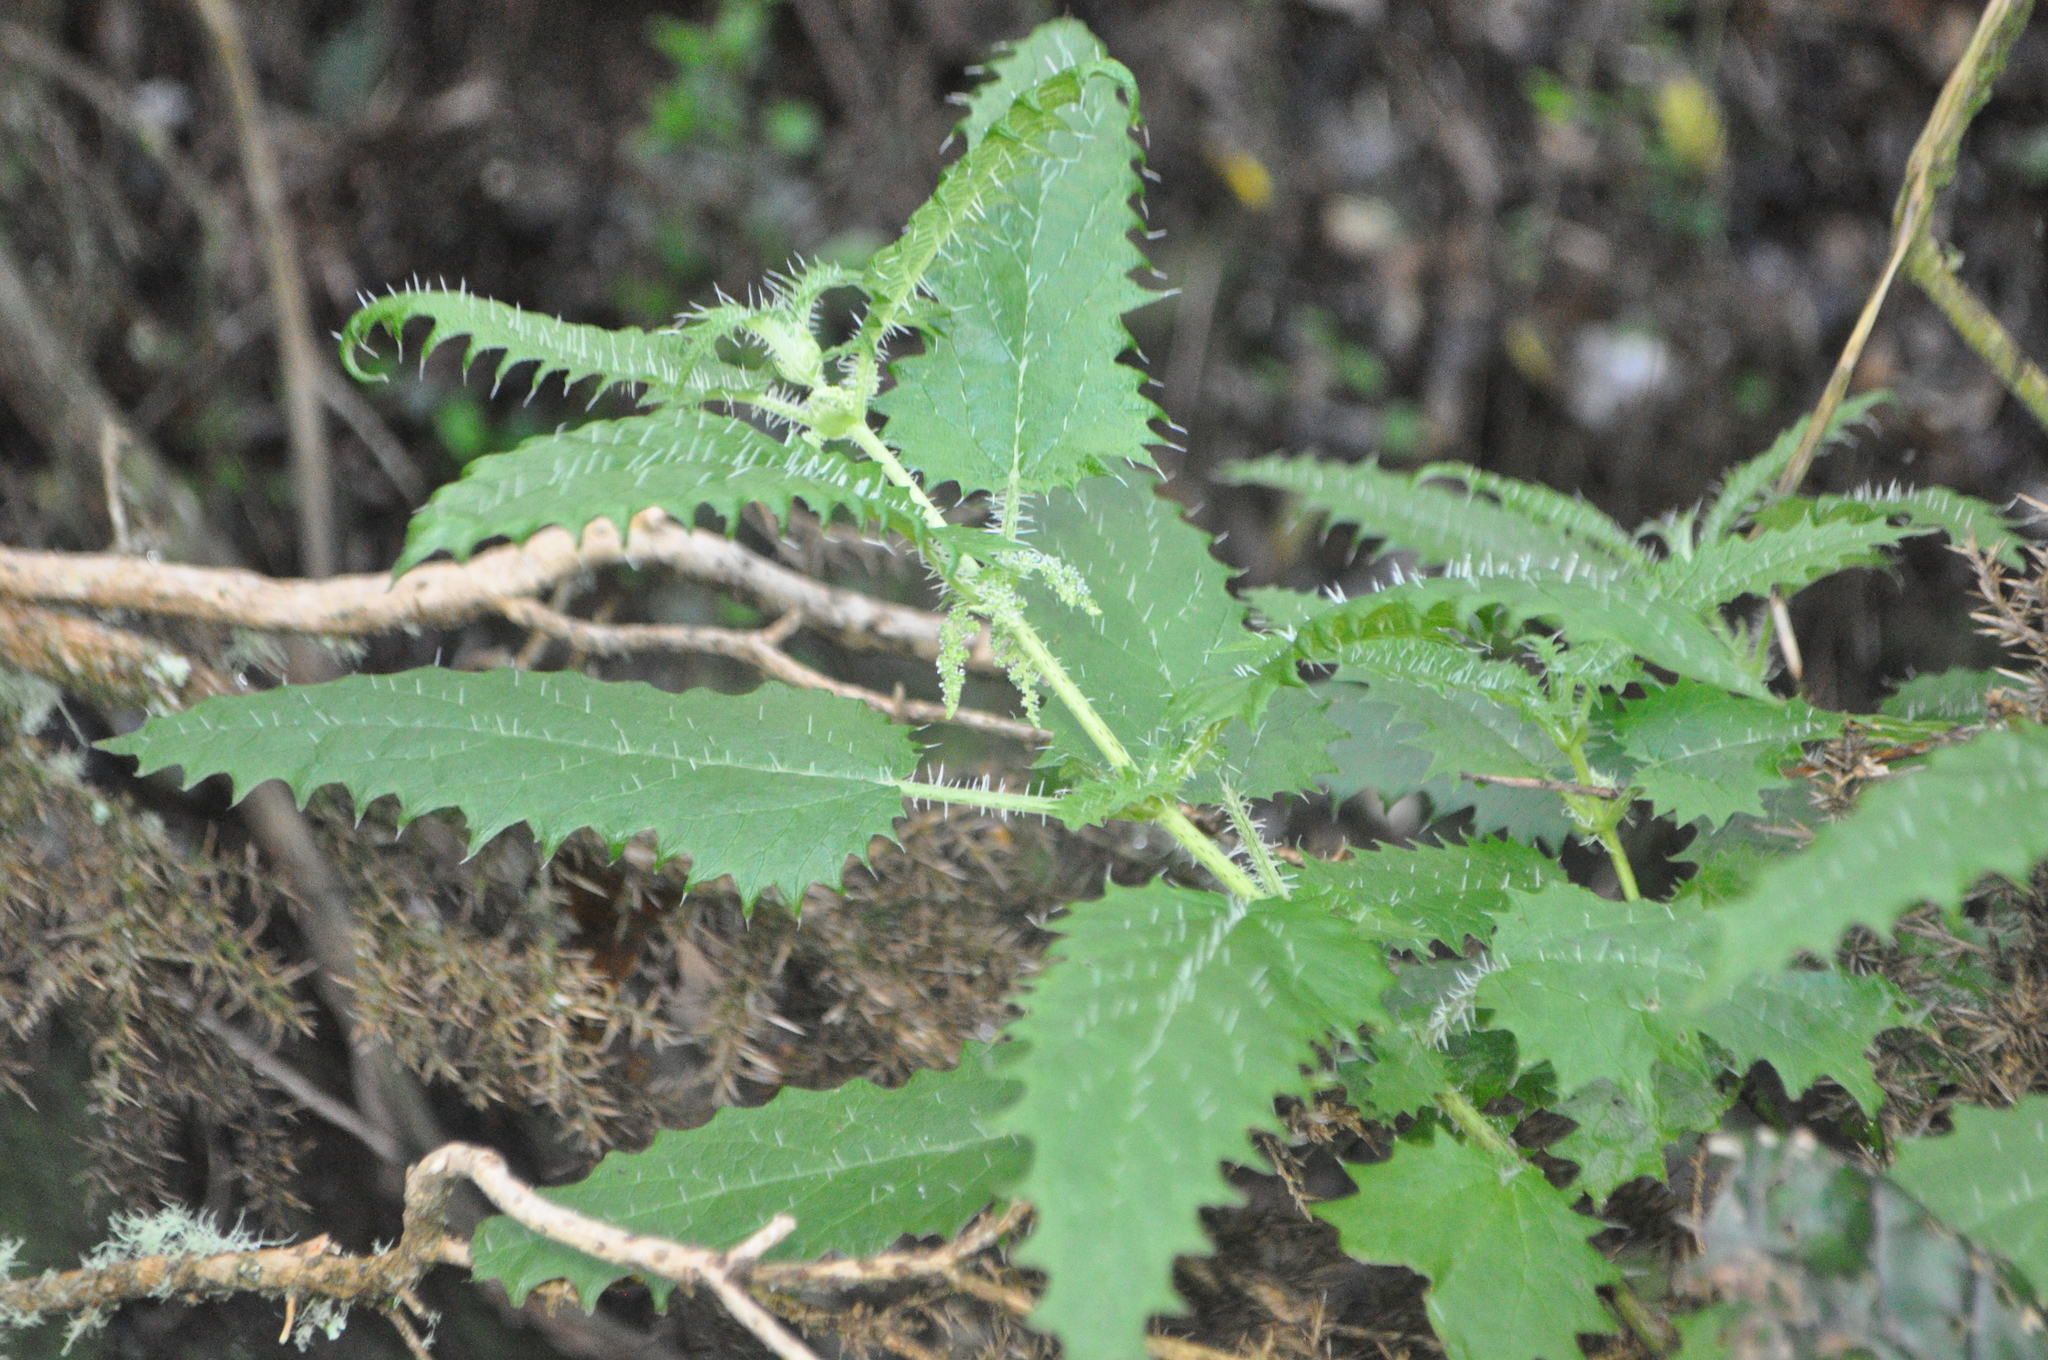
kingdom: Plantae
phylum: Tracheophyta
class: Magnoliopsida
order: Rosales
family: Urticaceae
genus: Urtica
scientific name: Urtica ferox
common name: Tree nettle
